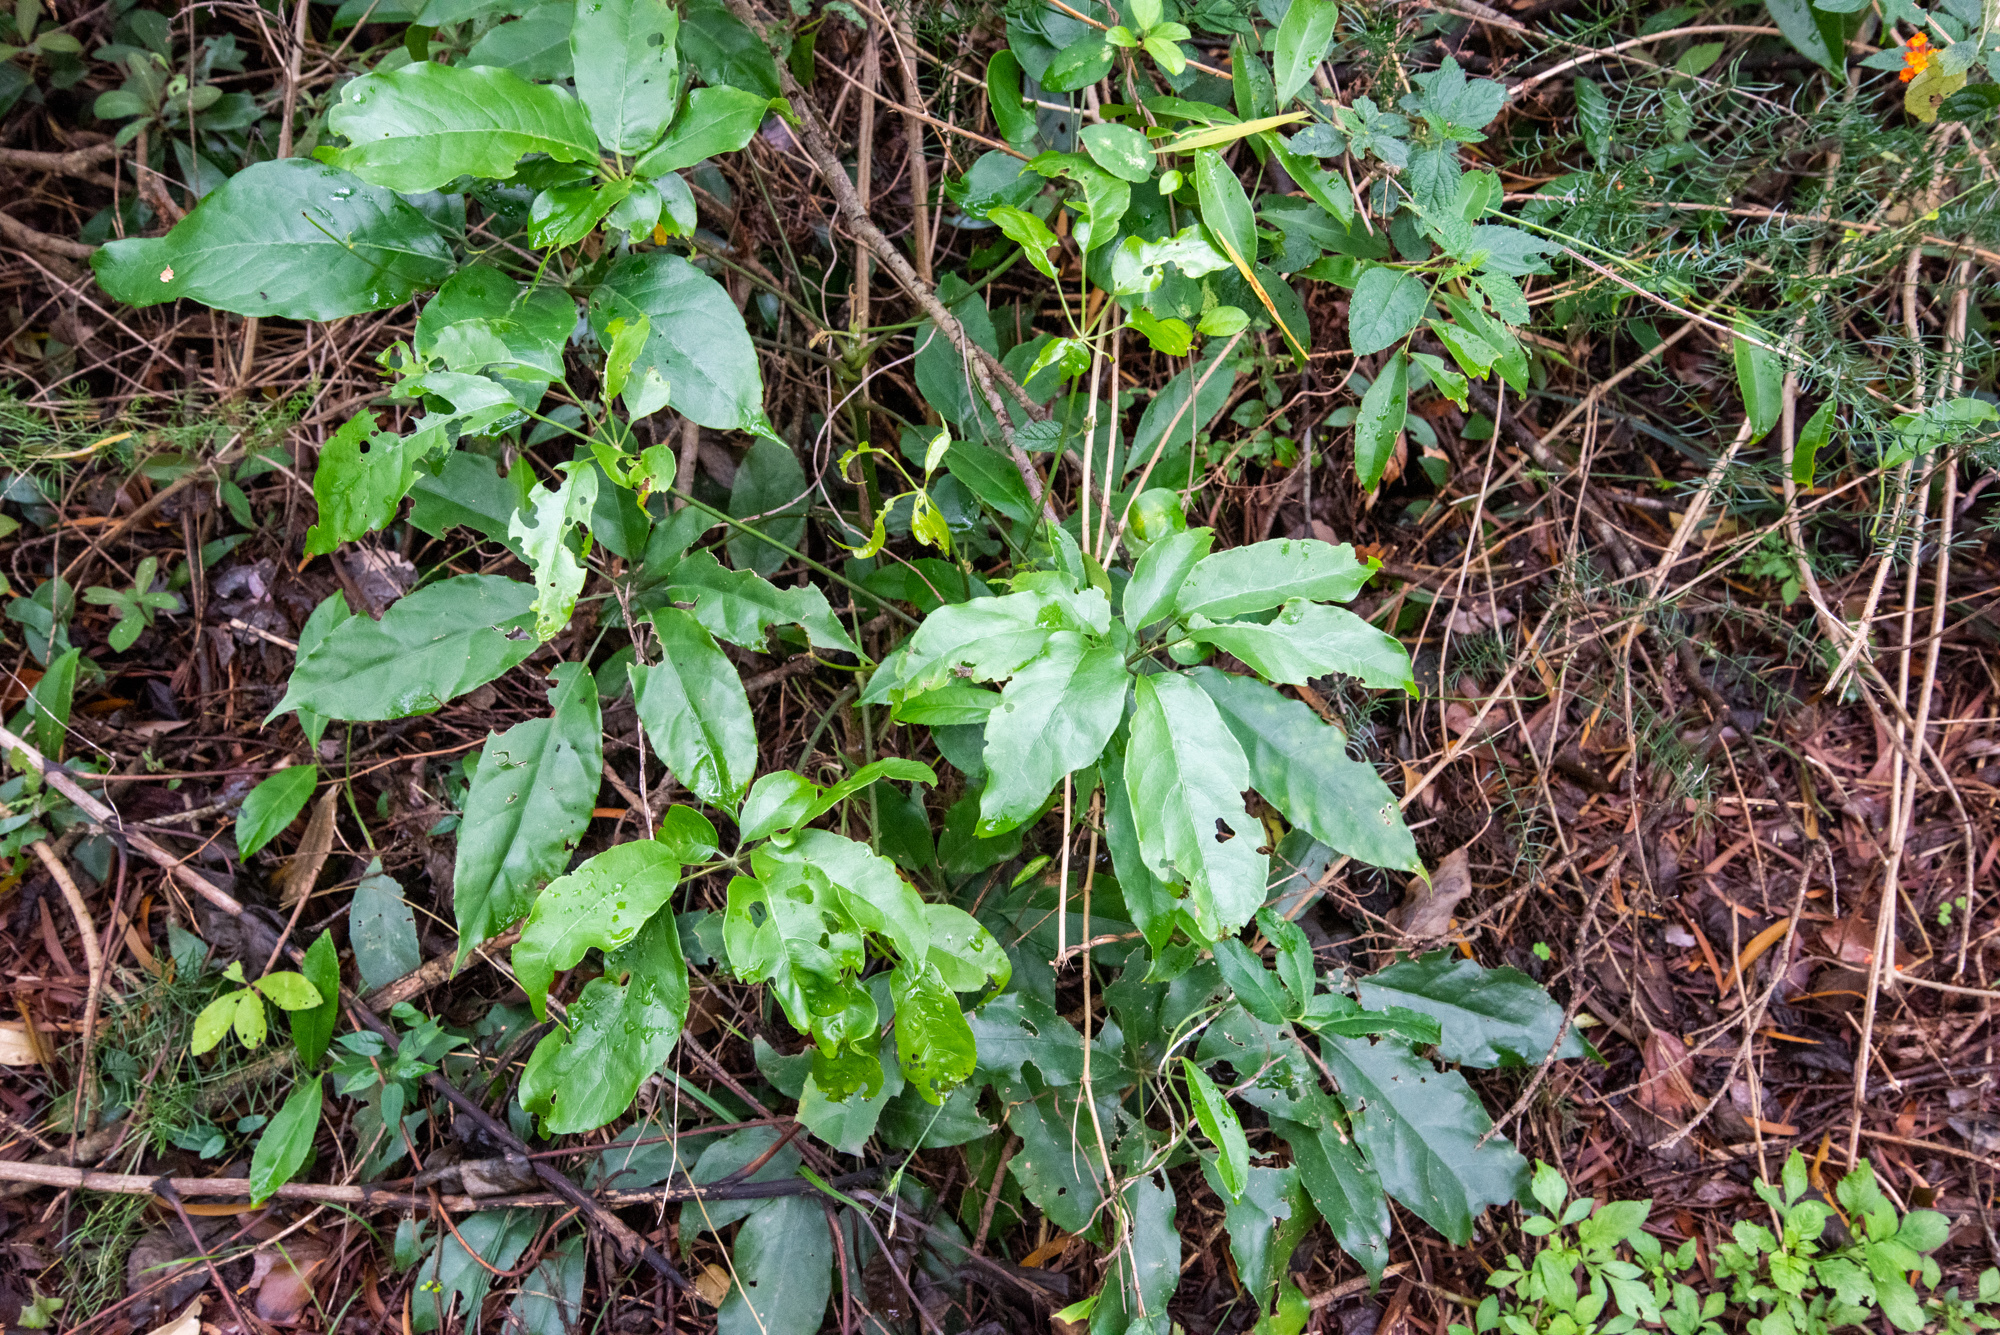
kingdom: Plantae
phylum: Tracheophyta
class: Magnoliopsida
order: Apiales
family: Araliaceae
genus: Heptapleurum
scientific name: Heptapleurum heptaphyllum
